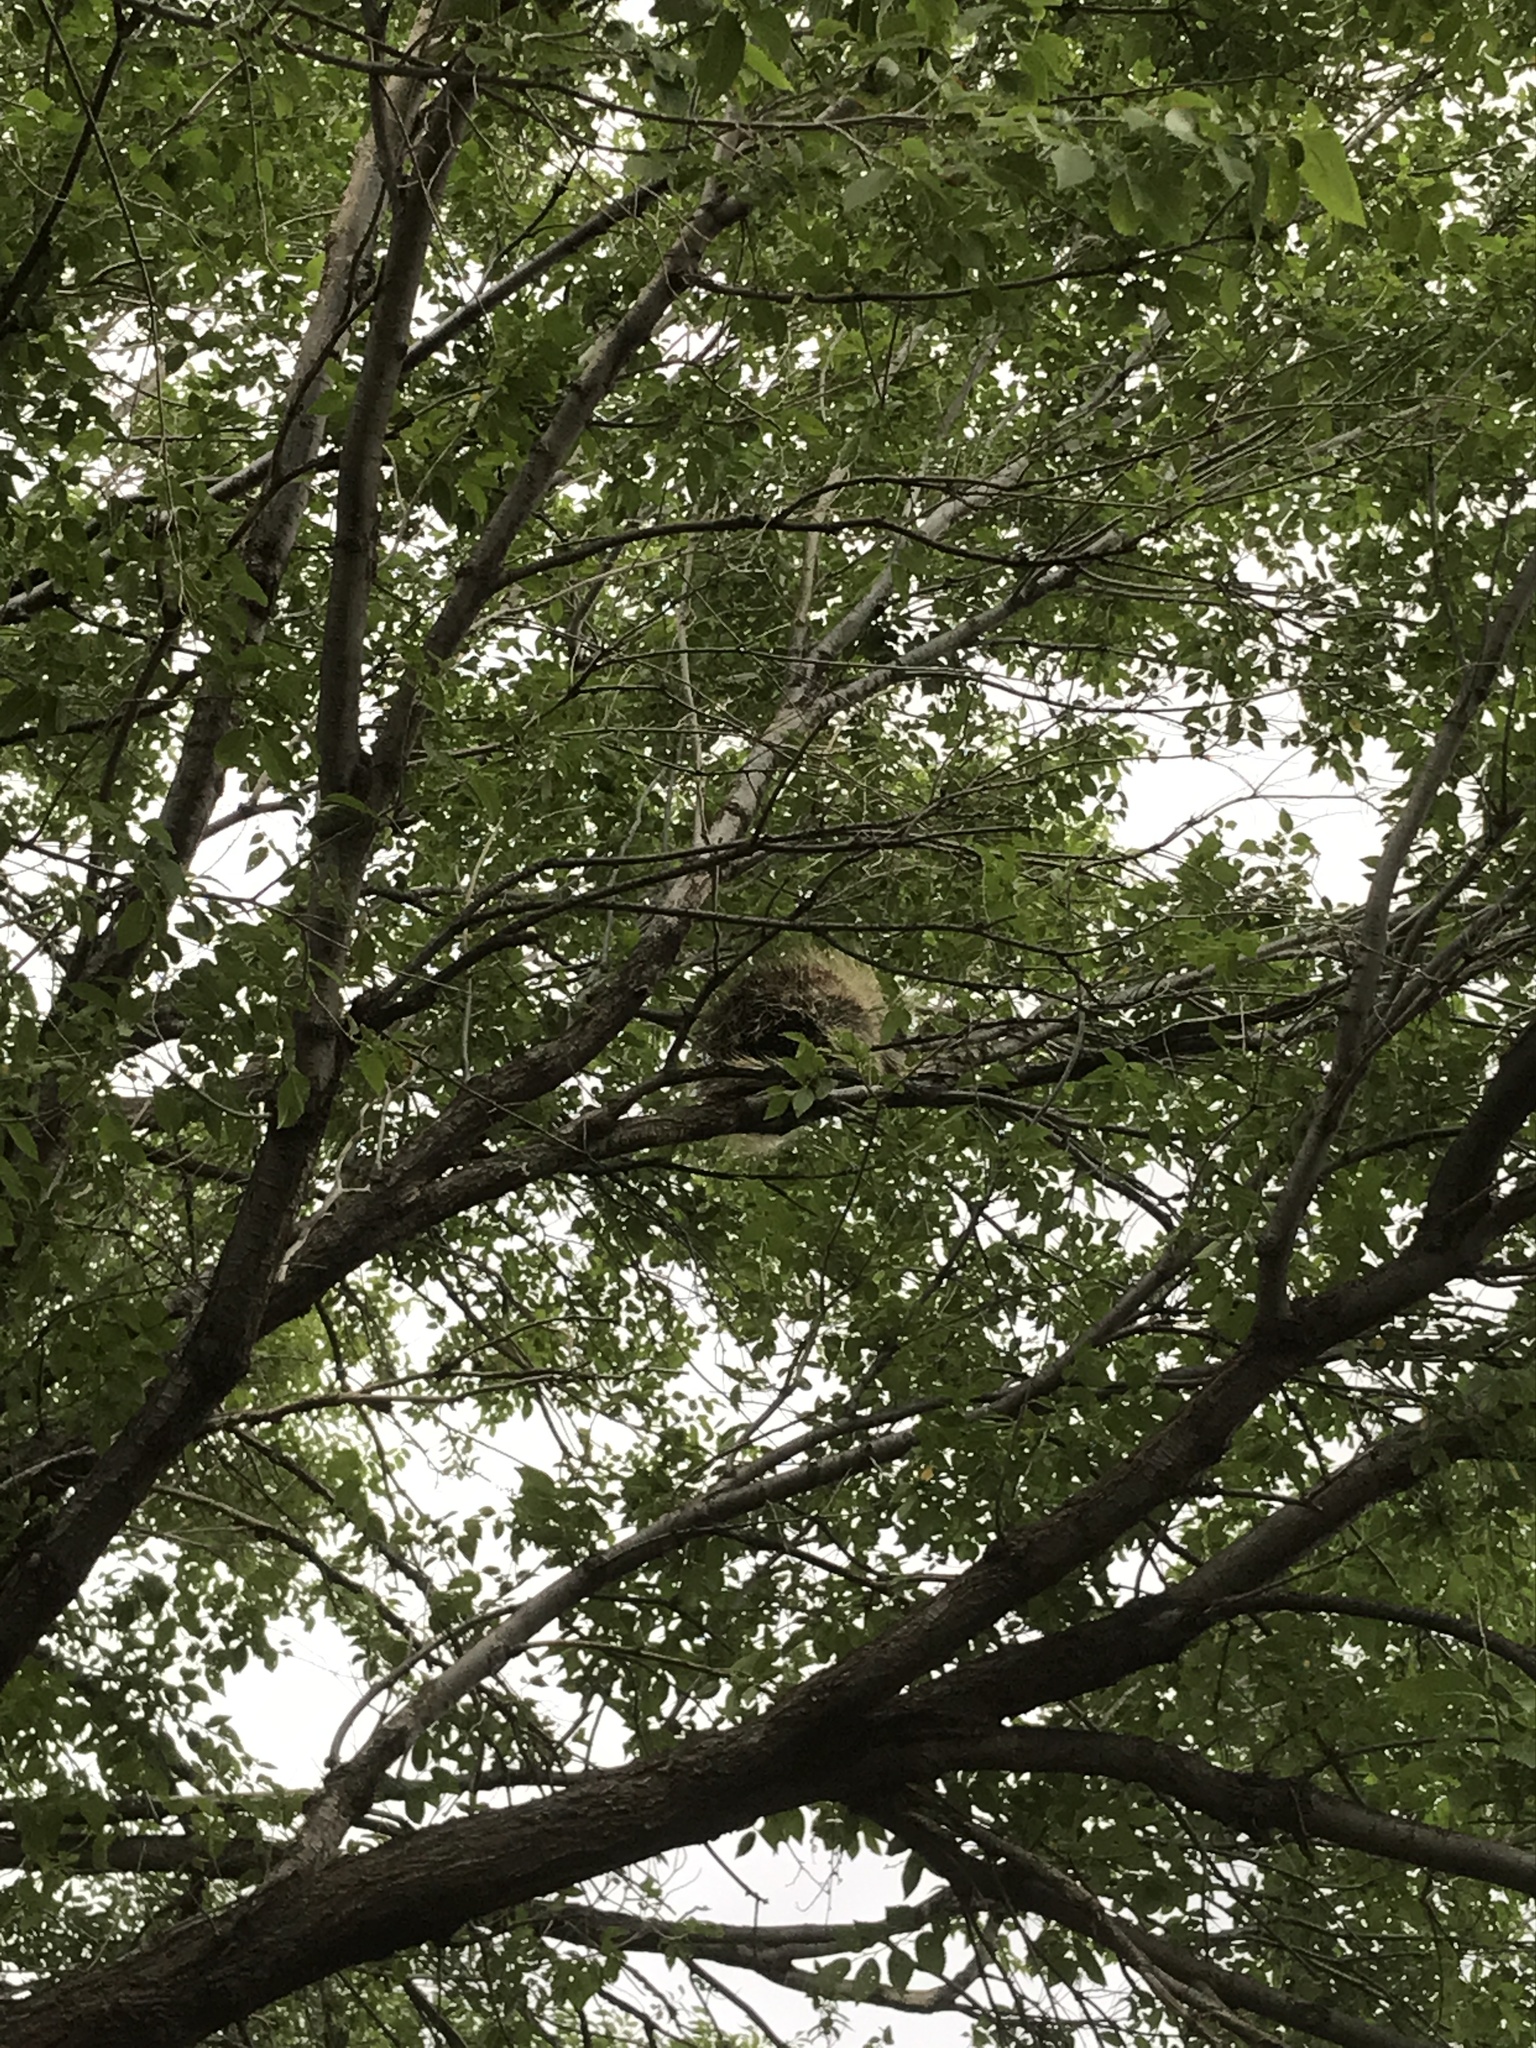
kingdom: Animalia
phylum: Chordata
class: Mammalia
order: Rodentia
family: Erethizontidae
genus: Erethizon
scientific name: Erethizon dorsatus
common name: North american porcupine
